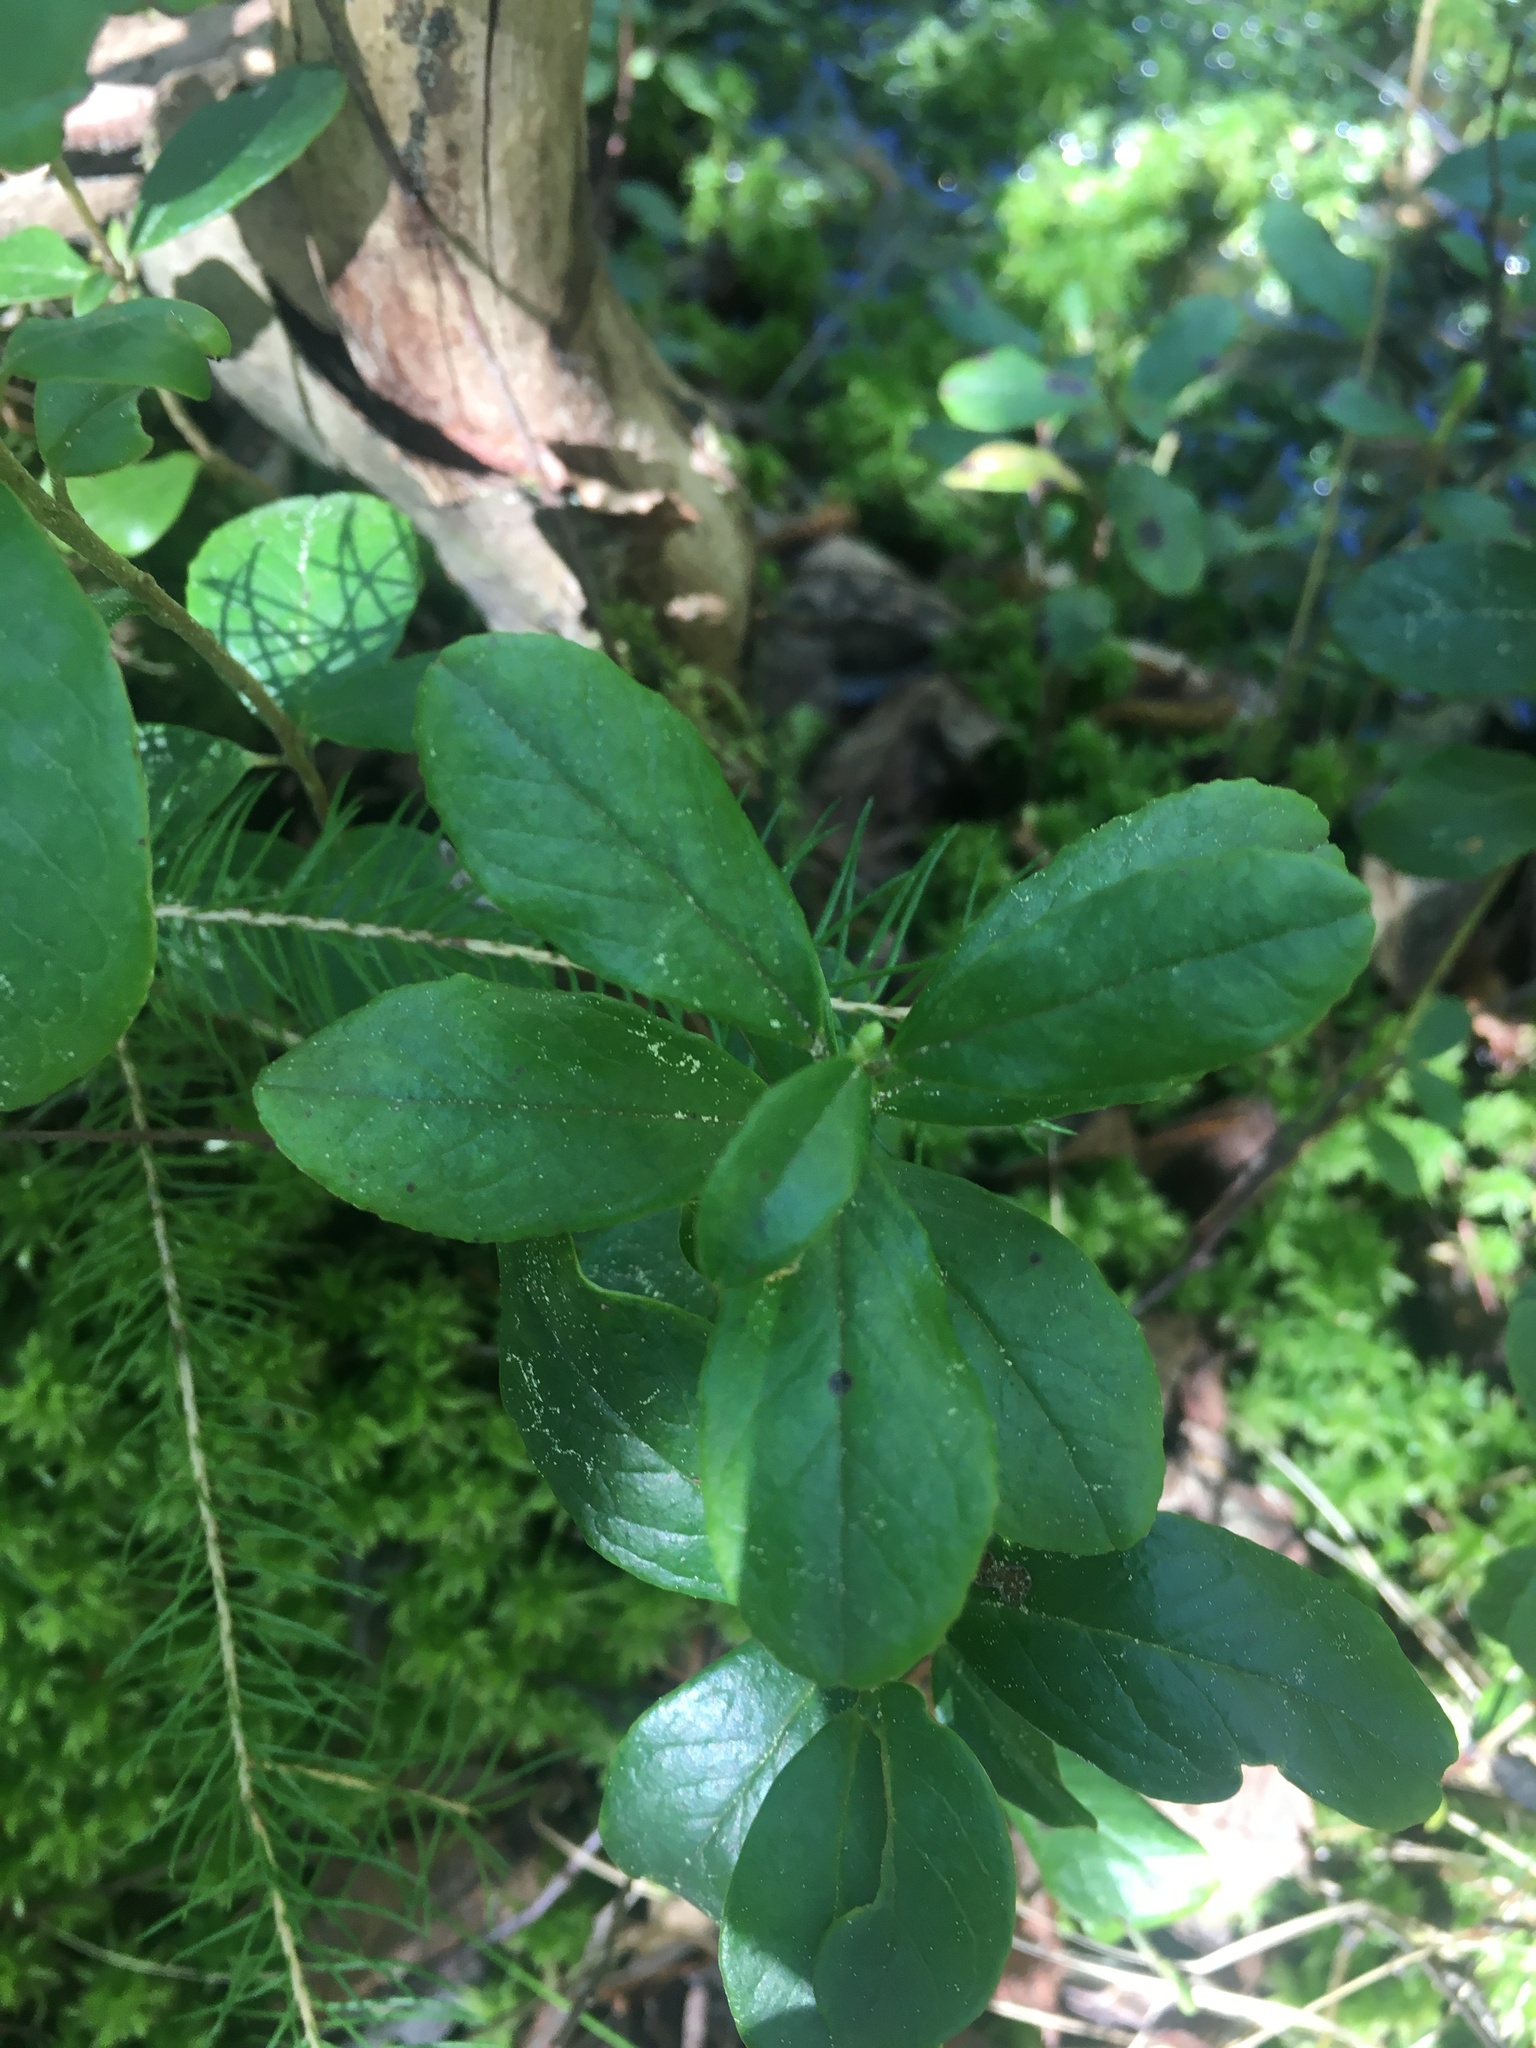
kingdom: Plantae
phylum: Tracheophyta
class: Magnoliopsida
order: Ericales
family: Ericaceae
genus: Vaccinium
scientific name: Vaccinium vitis-idaea
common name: Cowberry
